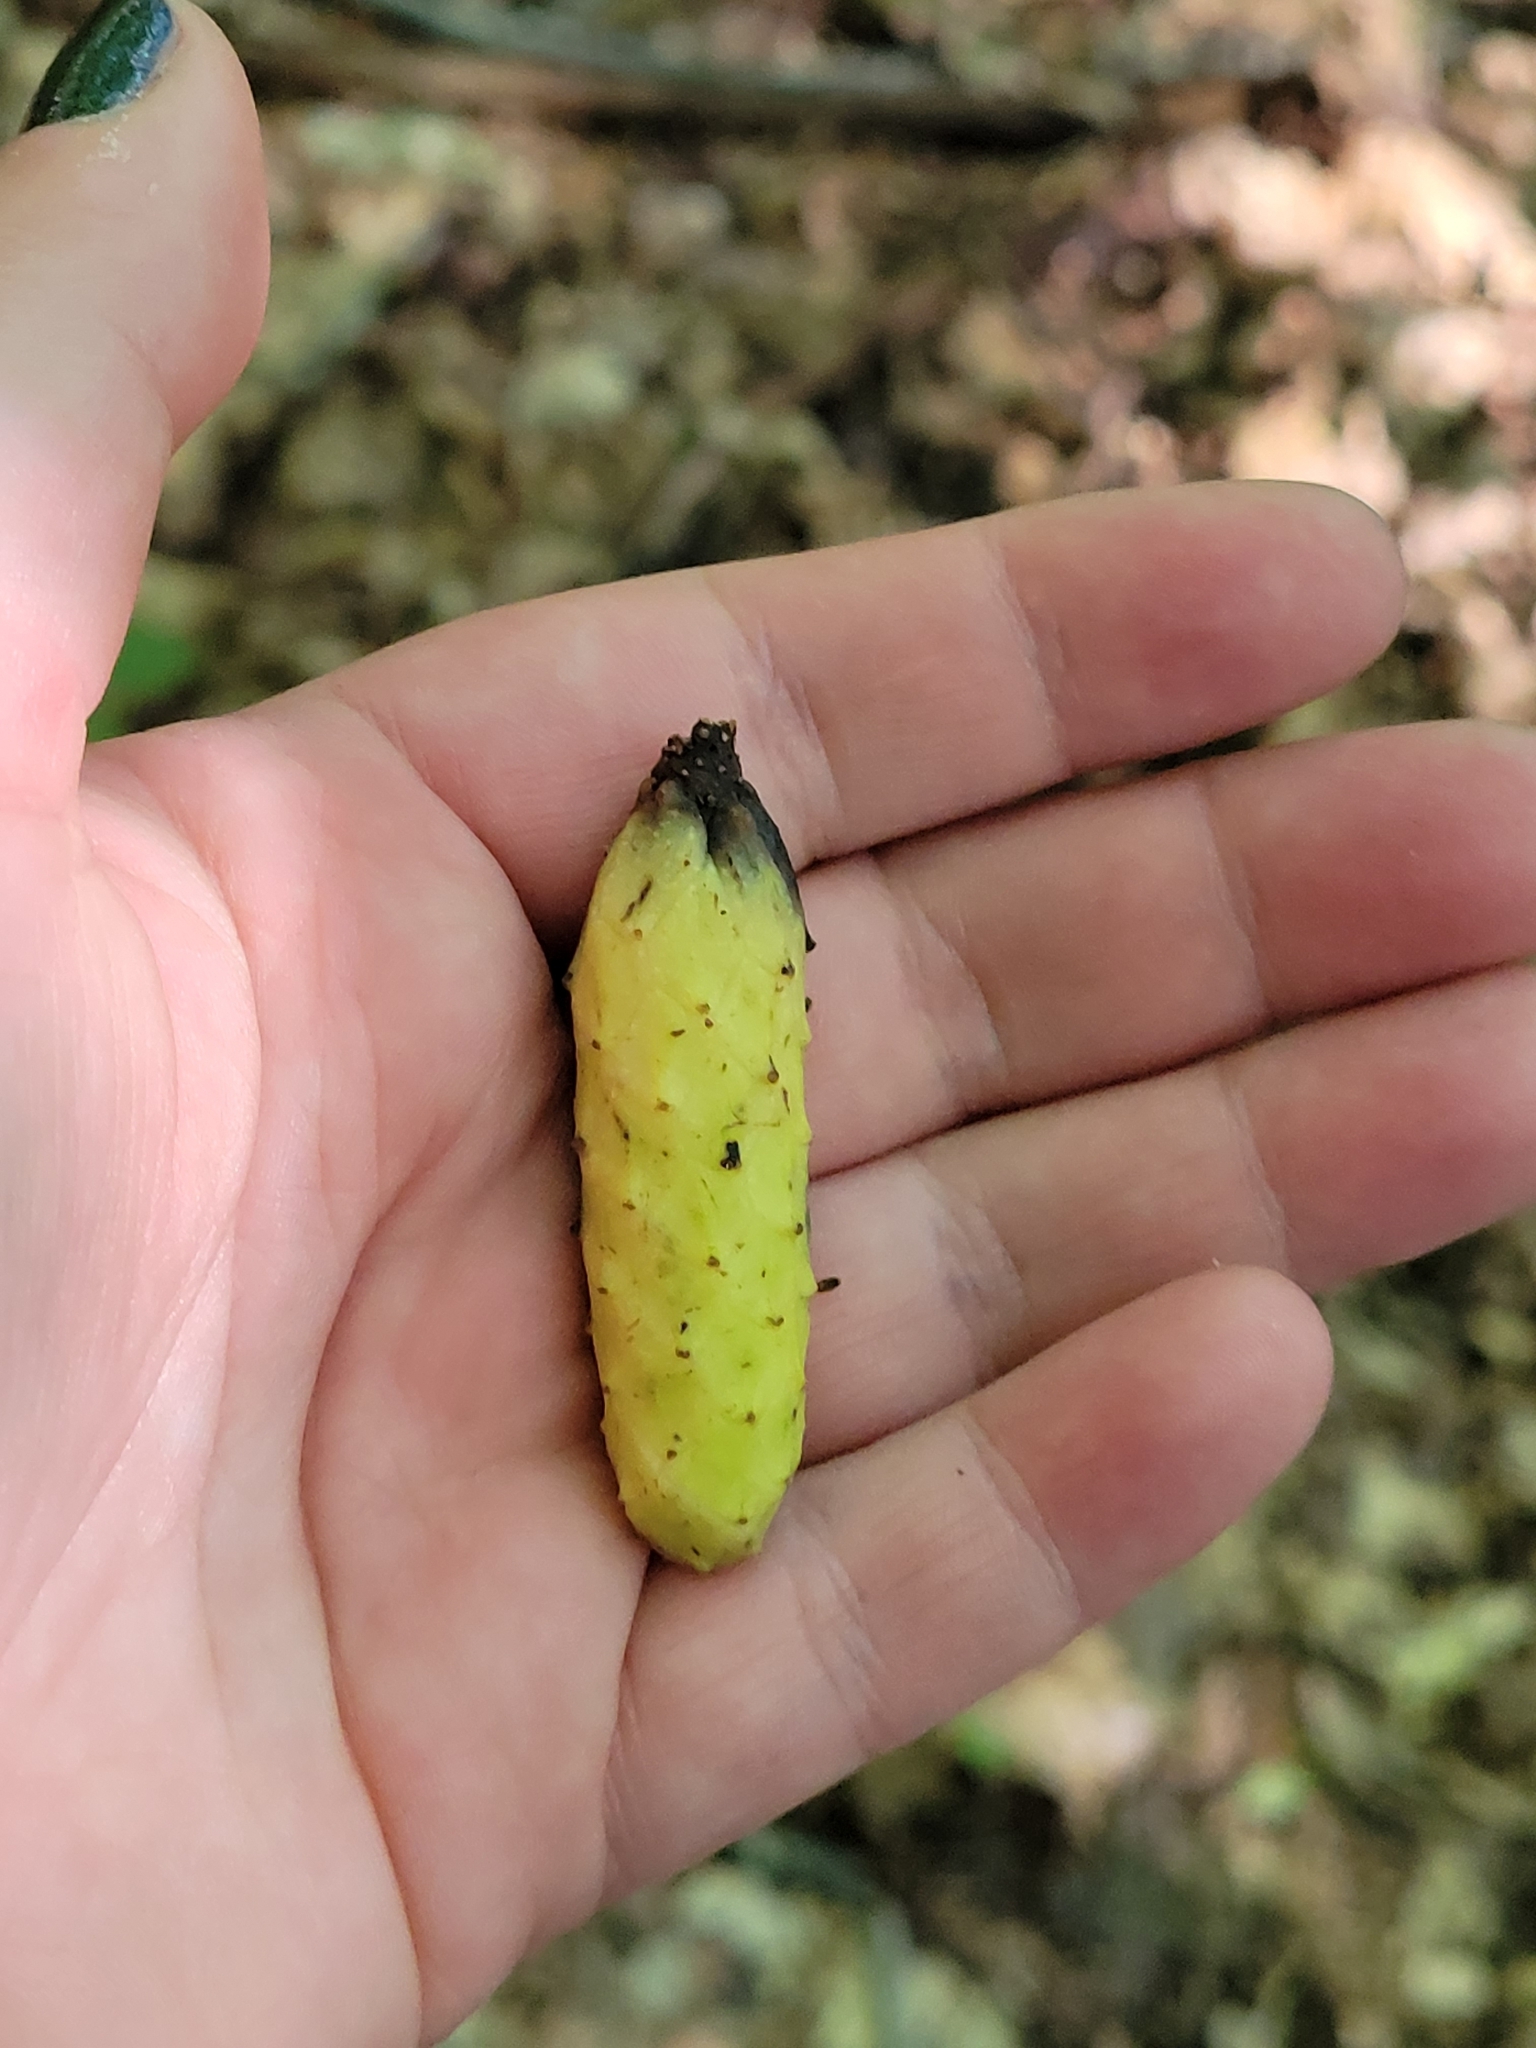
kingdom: Plantae
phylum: Tracheophyta
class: Magnoliopsida
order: Magnoliales
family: Magnoliaceae
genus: Magnolia
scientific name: Magnolia acuminata
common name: Cucumber magnolia
